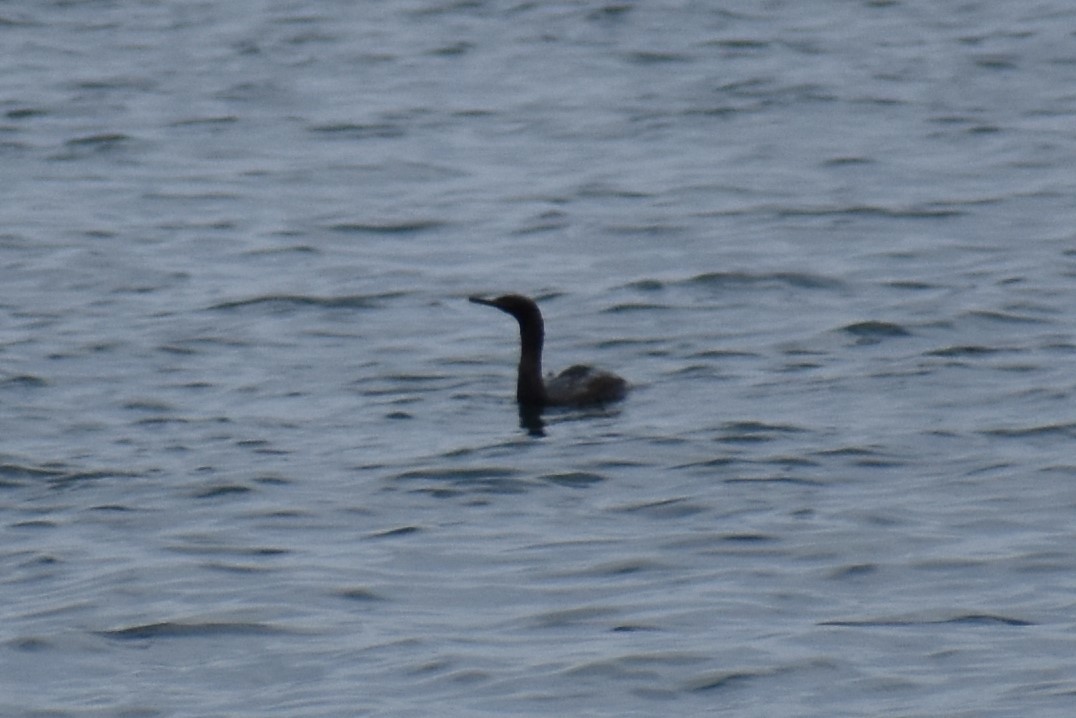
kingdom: Animalia
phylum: Chordata
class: Aves
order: Suliformes
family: Phalacrocoracidae
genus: Phalacrocorax
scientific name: Phalacrocorax pelagicus
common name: Pelagic cormorant
